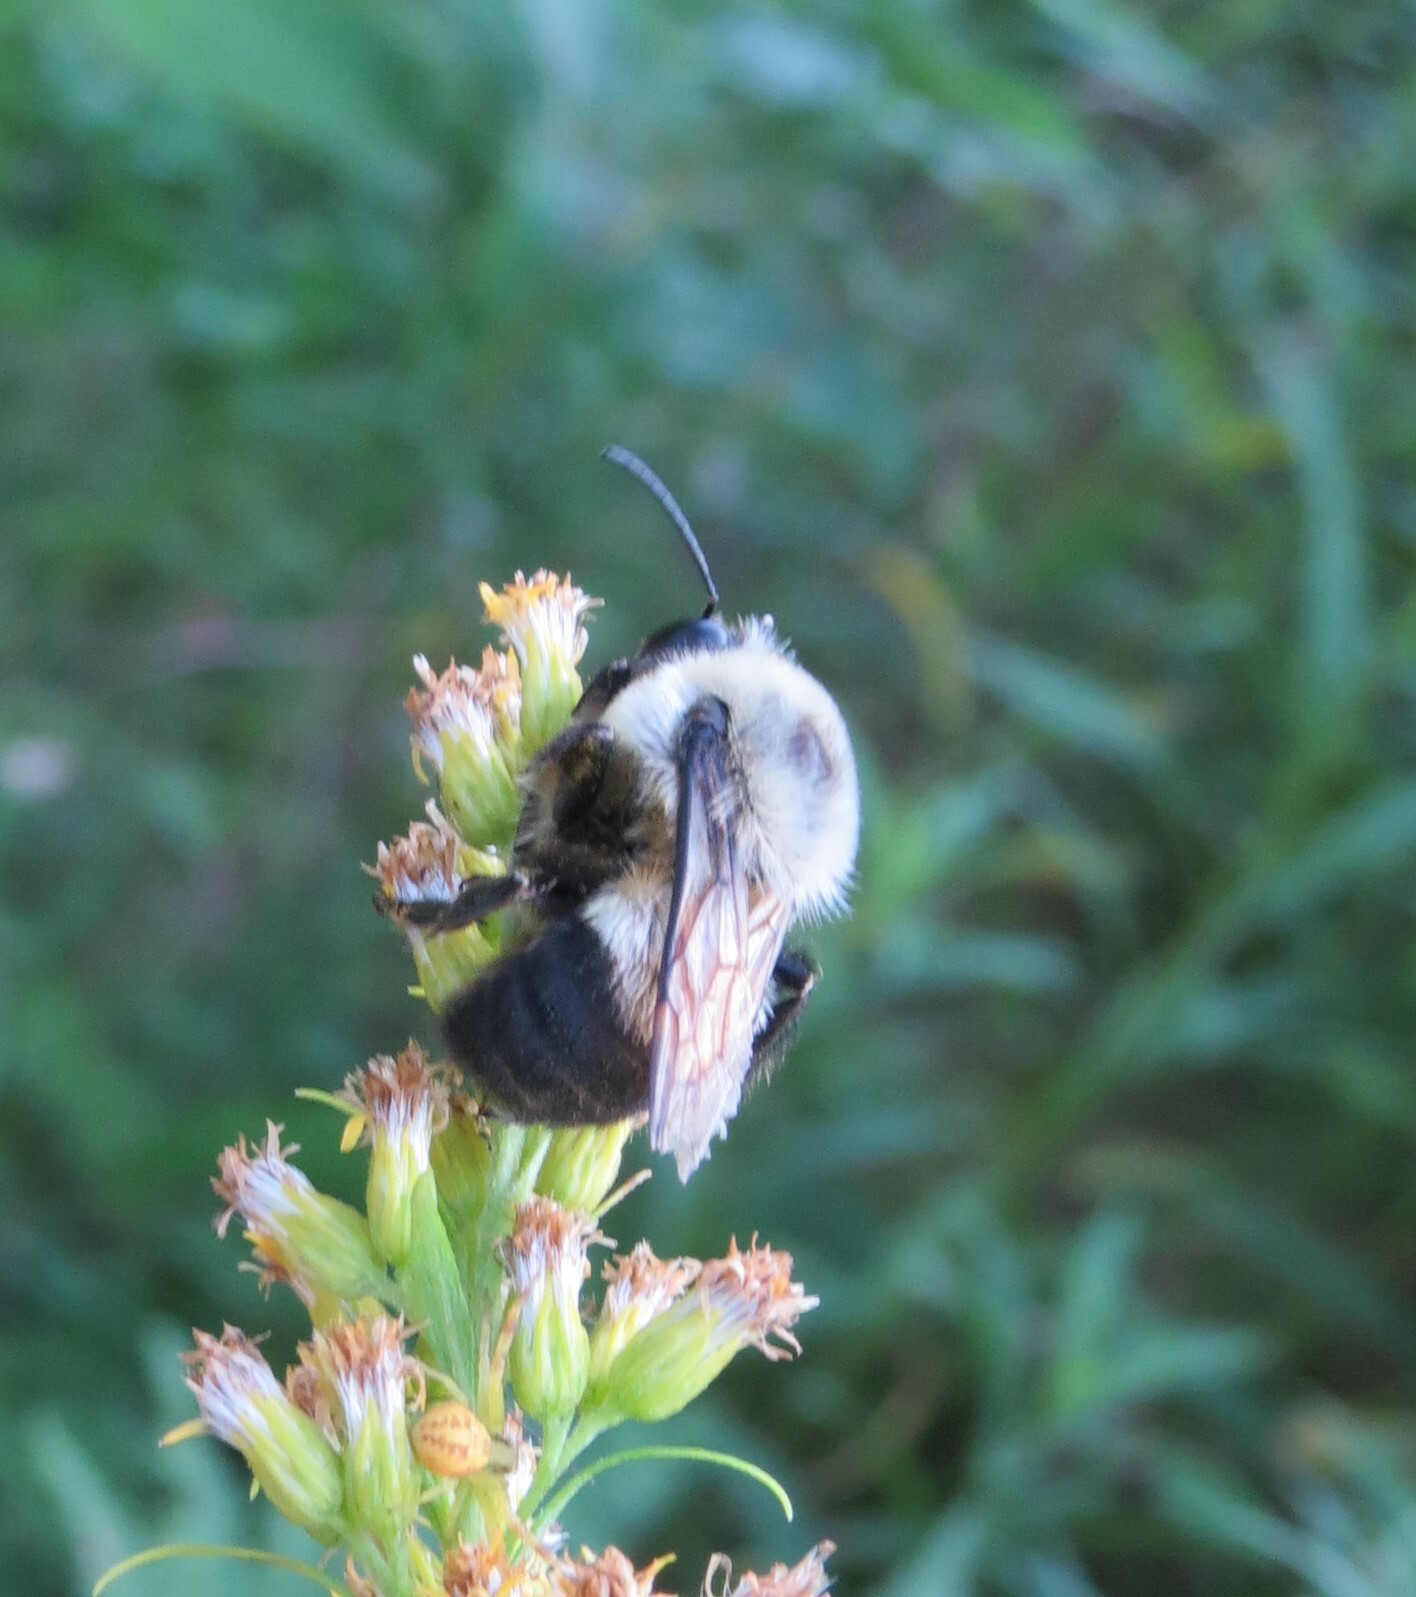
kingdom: Animalia
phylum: Arthropoda
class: Insecta
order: Hymenoptera
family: Apidae
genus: Bombus
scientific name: Bombus griseocollis
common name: Brown-belted bumble bee
